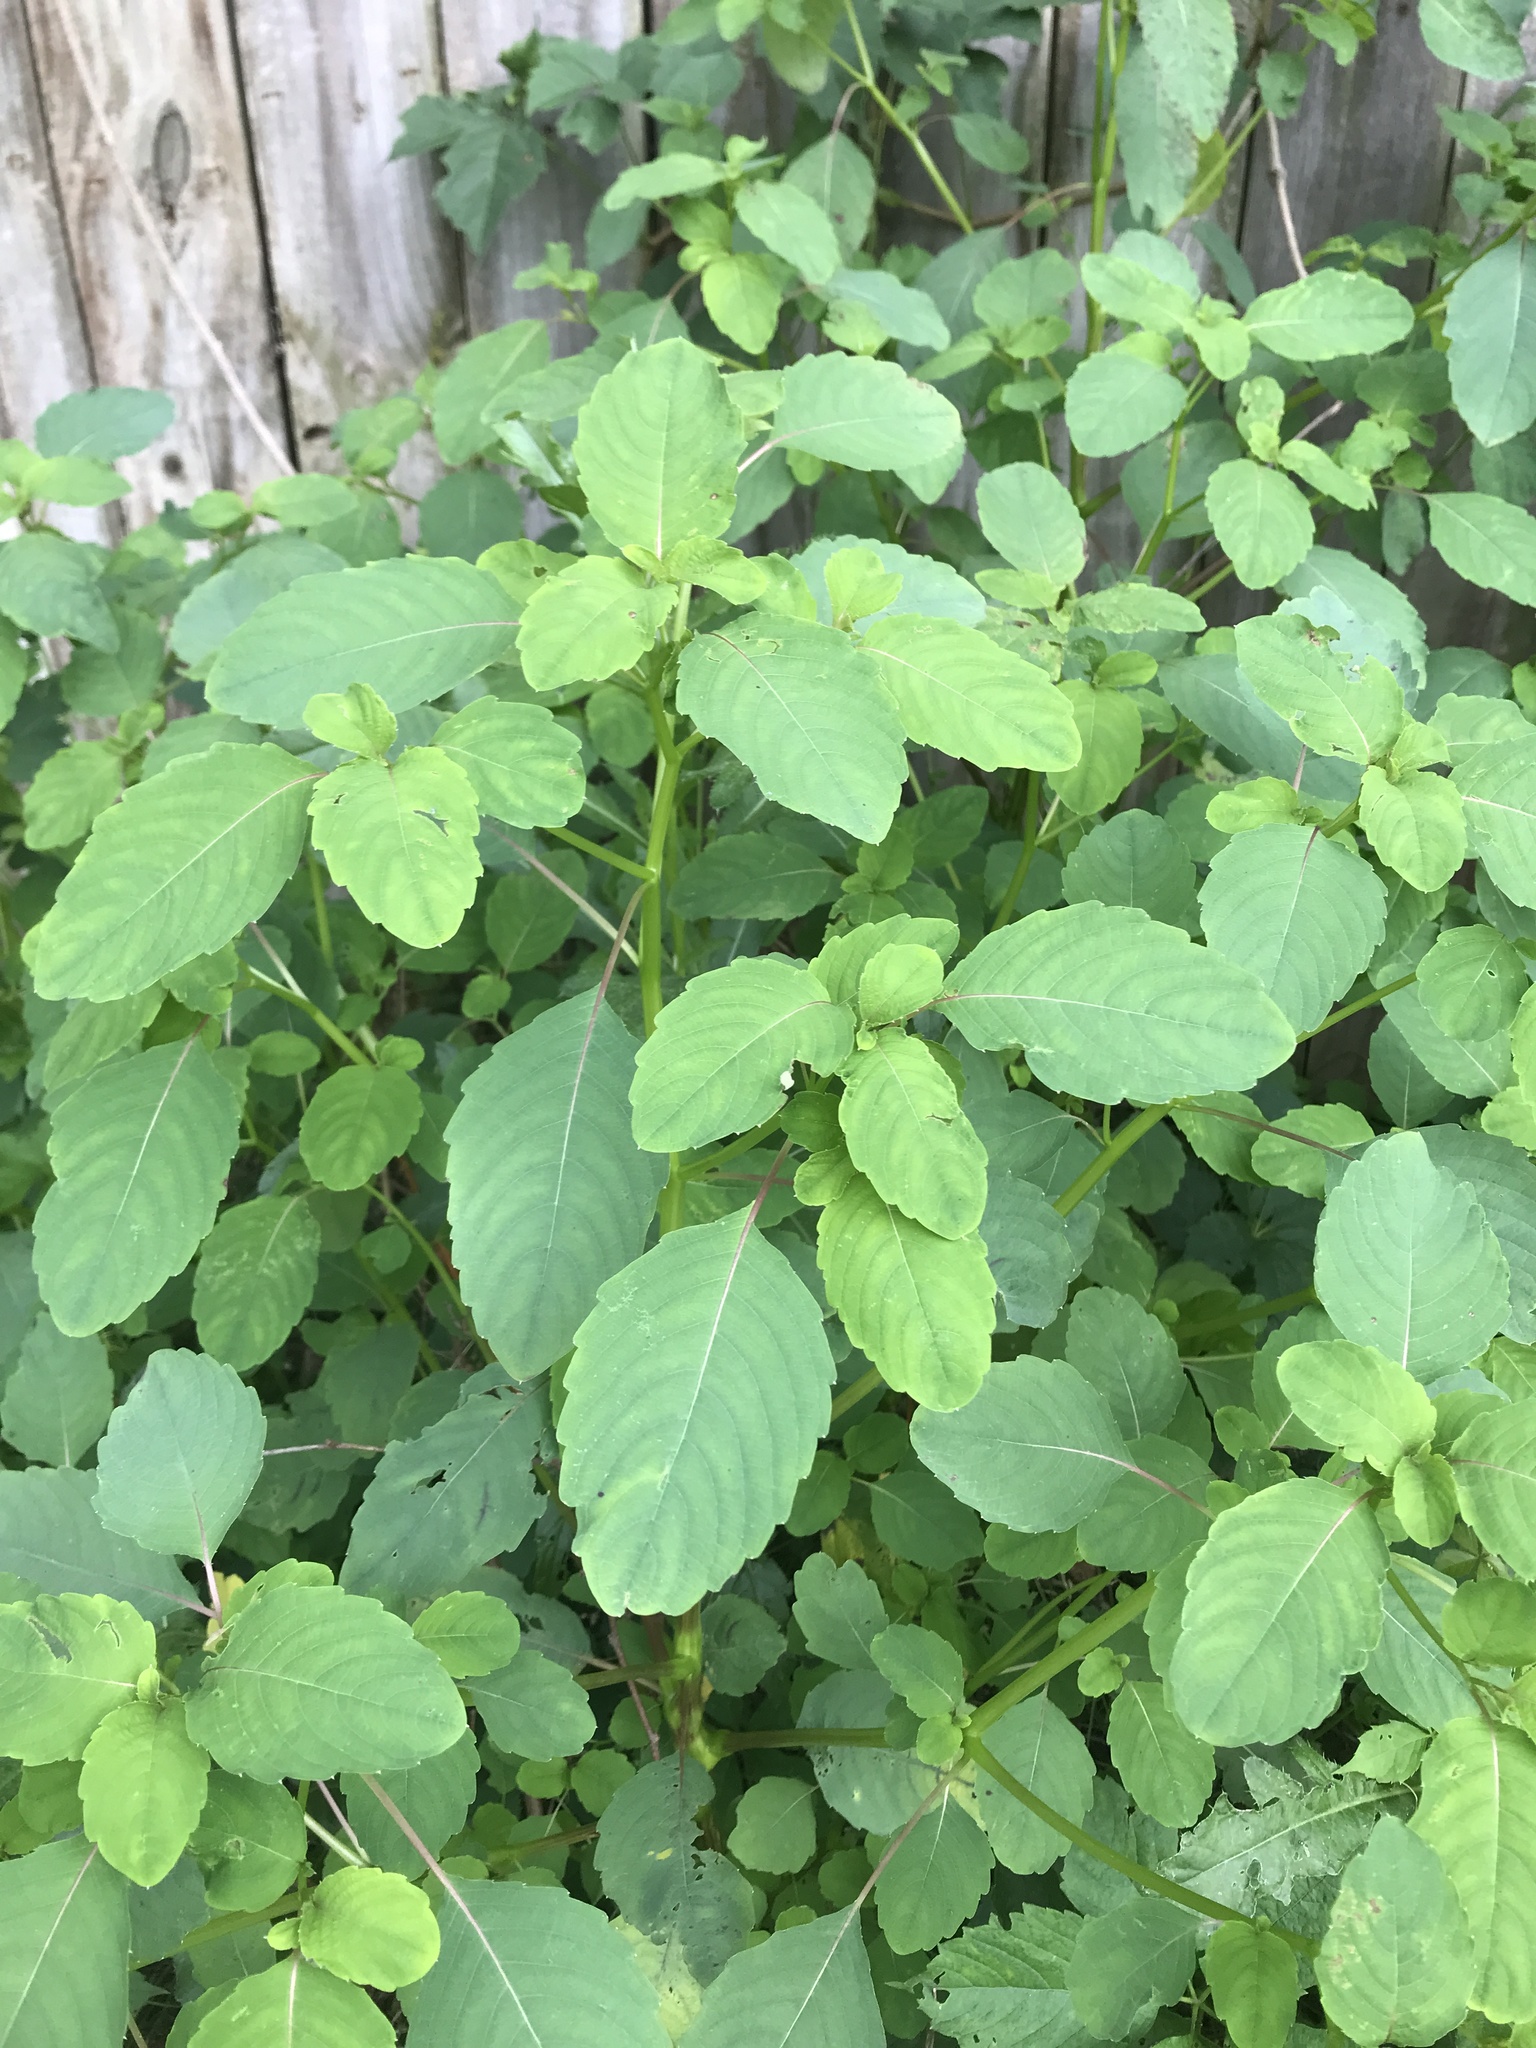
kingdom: Plantae
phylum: Tracheophyta
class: Magnoliopsida
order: Ericales
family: Balsaminaceae
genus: Impatiens
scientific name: Impatiens capensis
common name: Orange balsam
